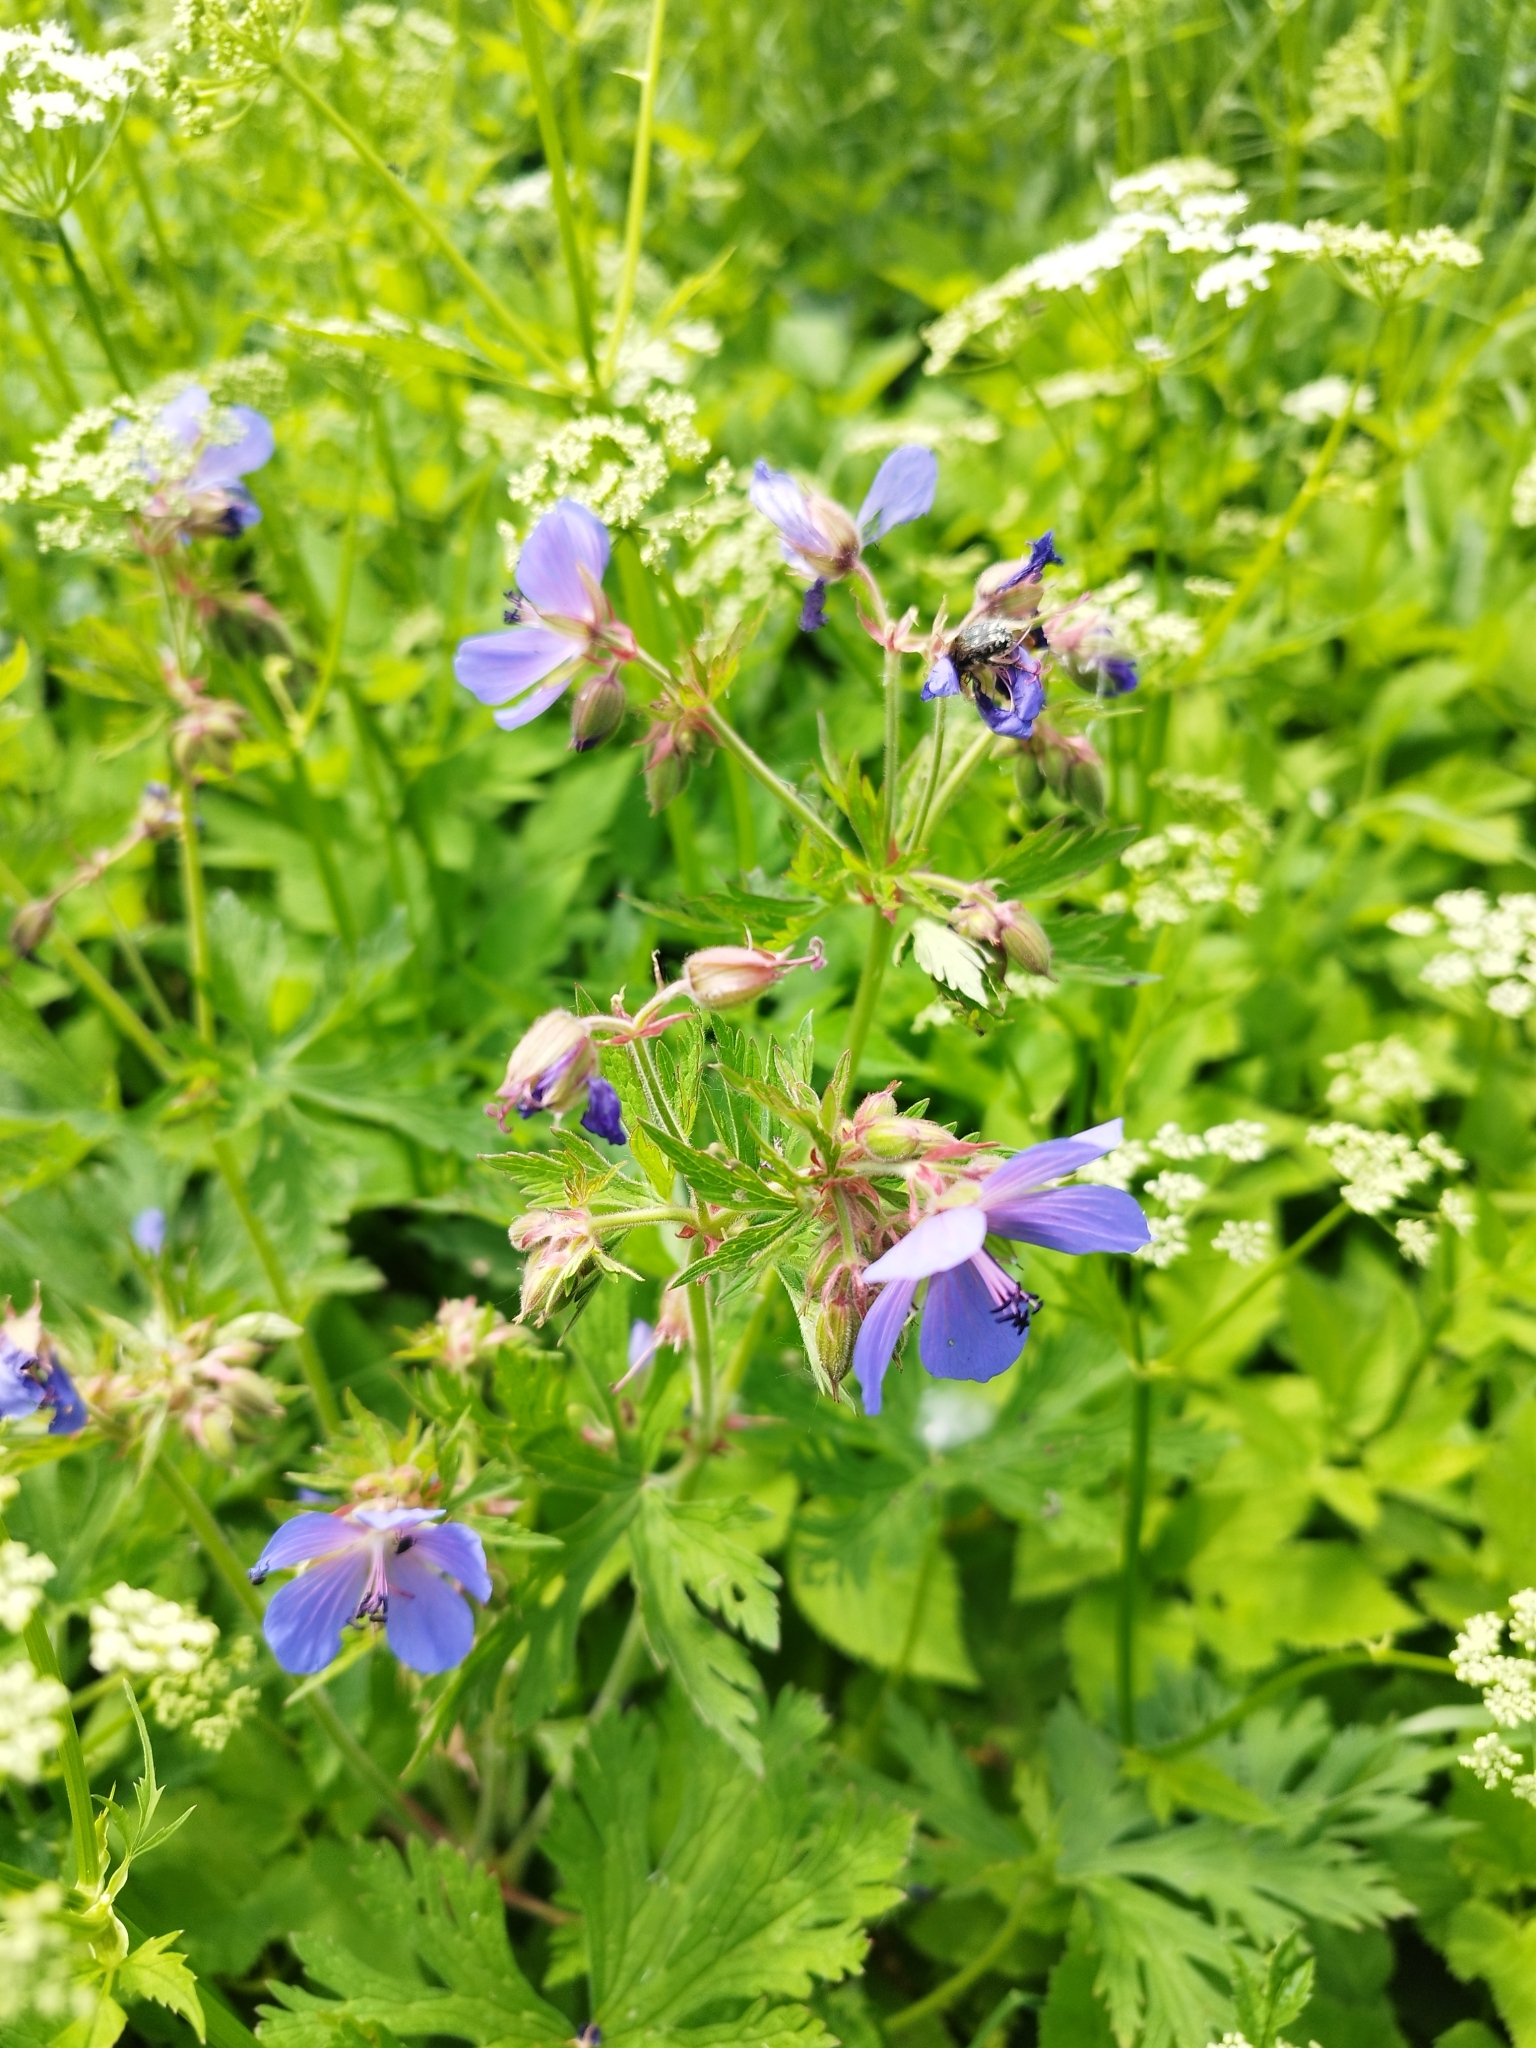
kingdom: Plantae
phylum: Tracheophyta
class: Magnoliopsida
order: Geraniales
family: Geraniaceae
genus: Geranium
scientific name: Geranium pratense
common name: Meadow crane's-bill
